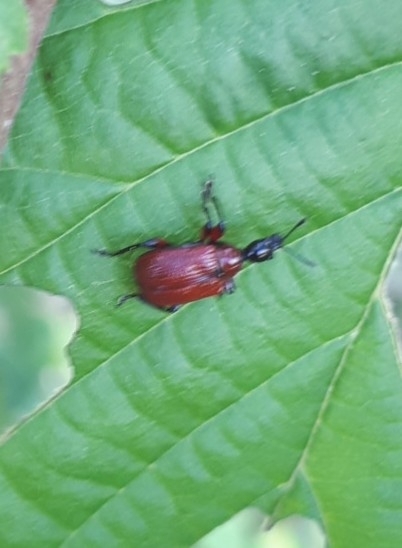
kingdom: Animalia
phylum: Arthropoda
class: Insecta
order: Coleoptera
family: Attelabidae
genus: Apoderus
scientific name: Apoderus coryli
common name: Hazel leaf roller
